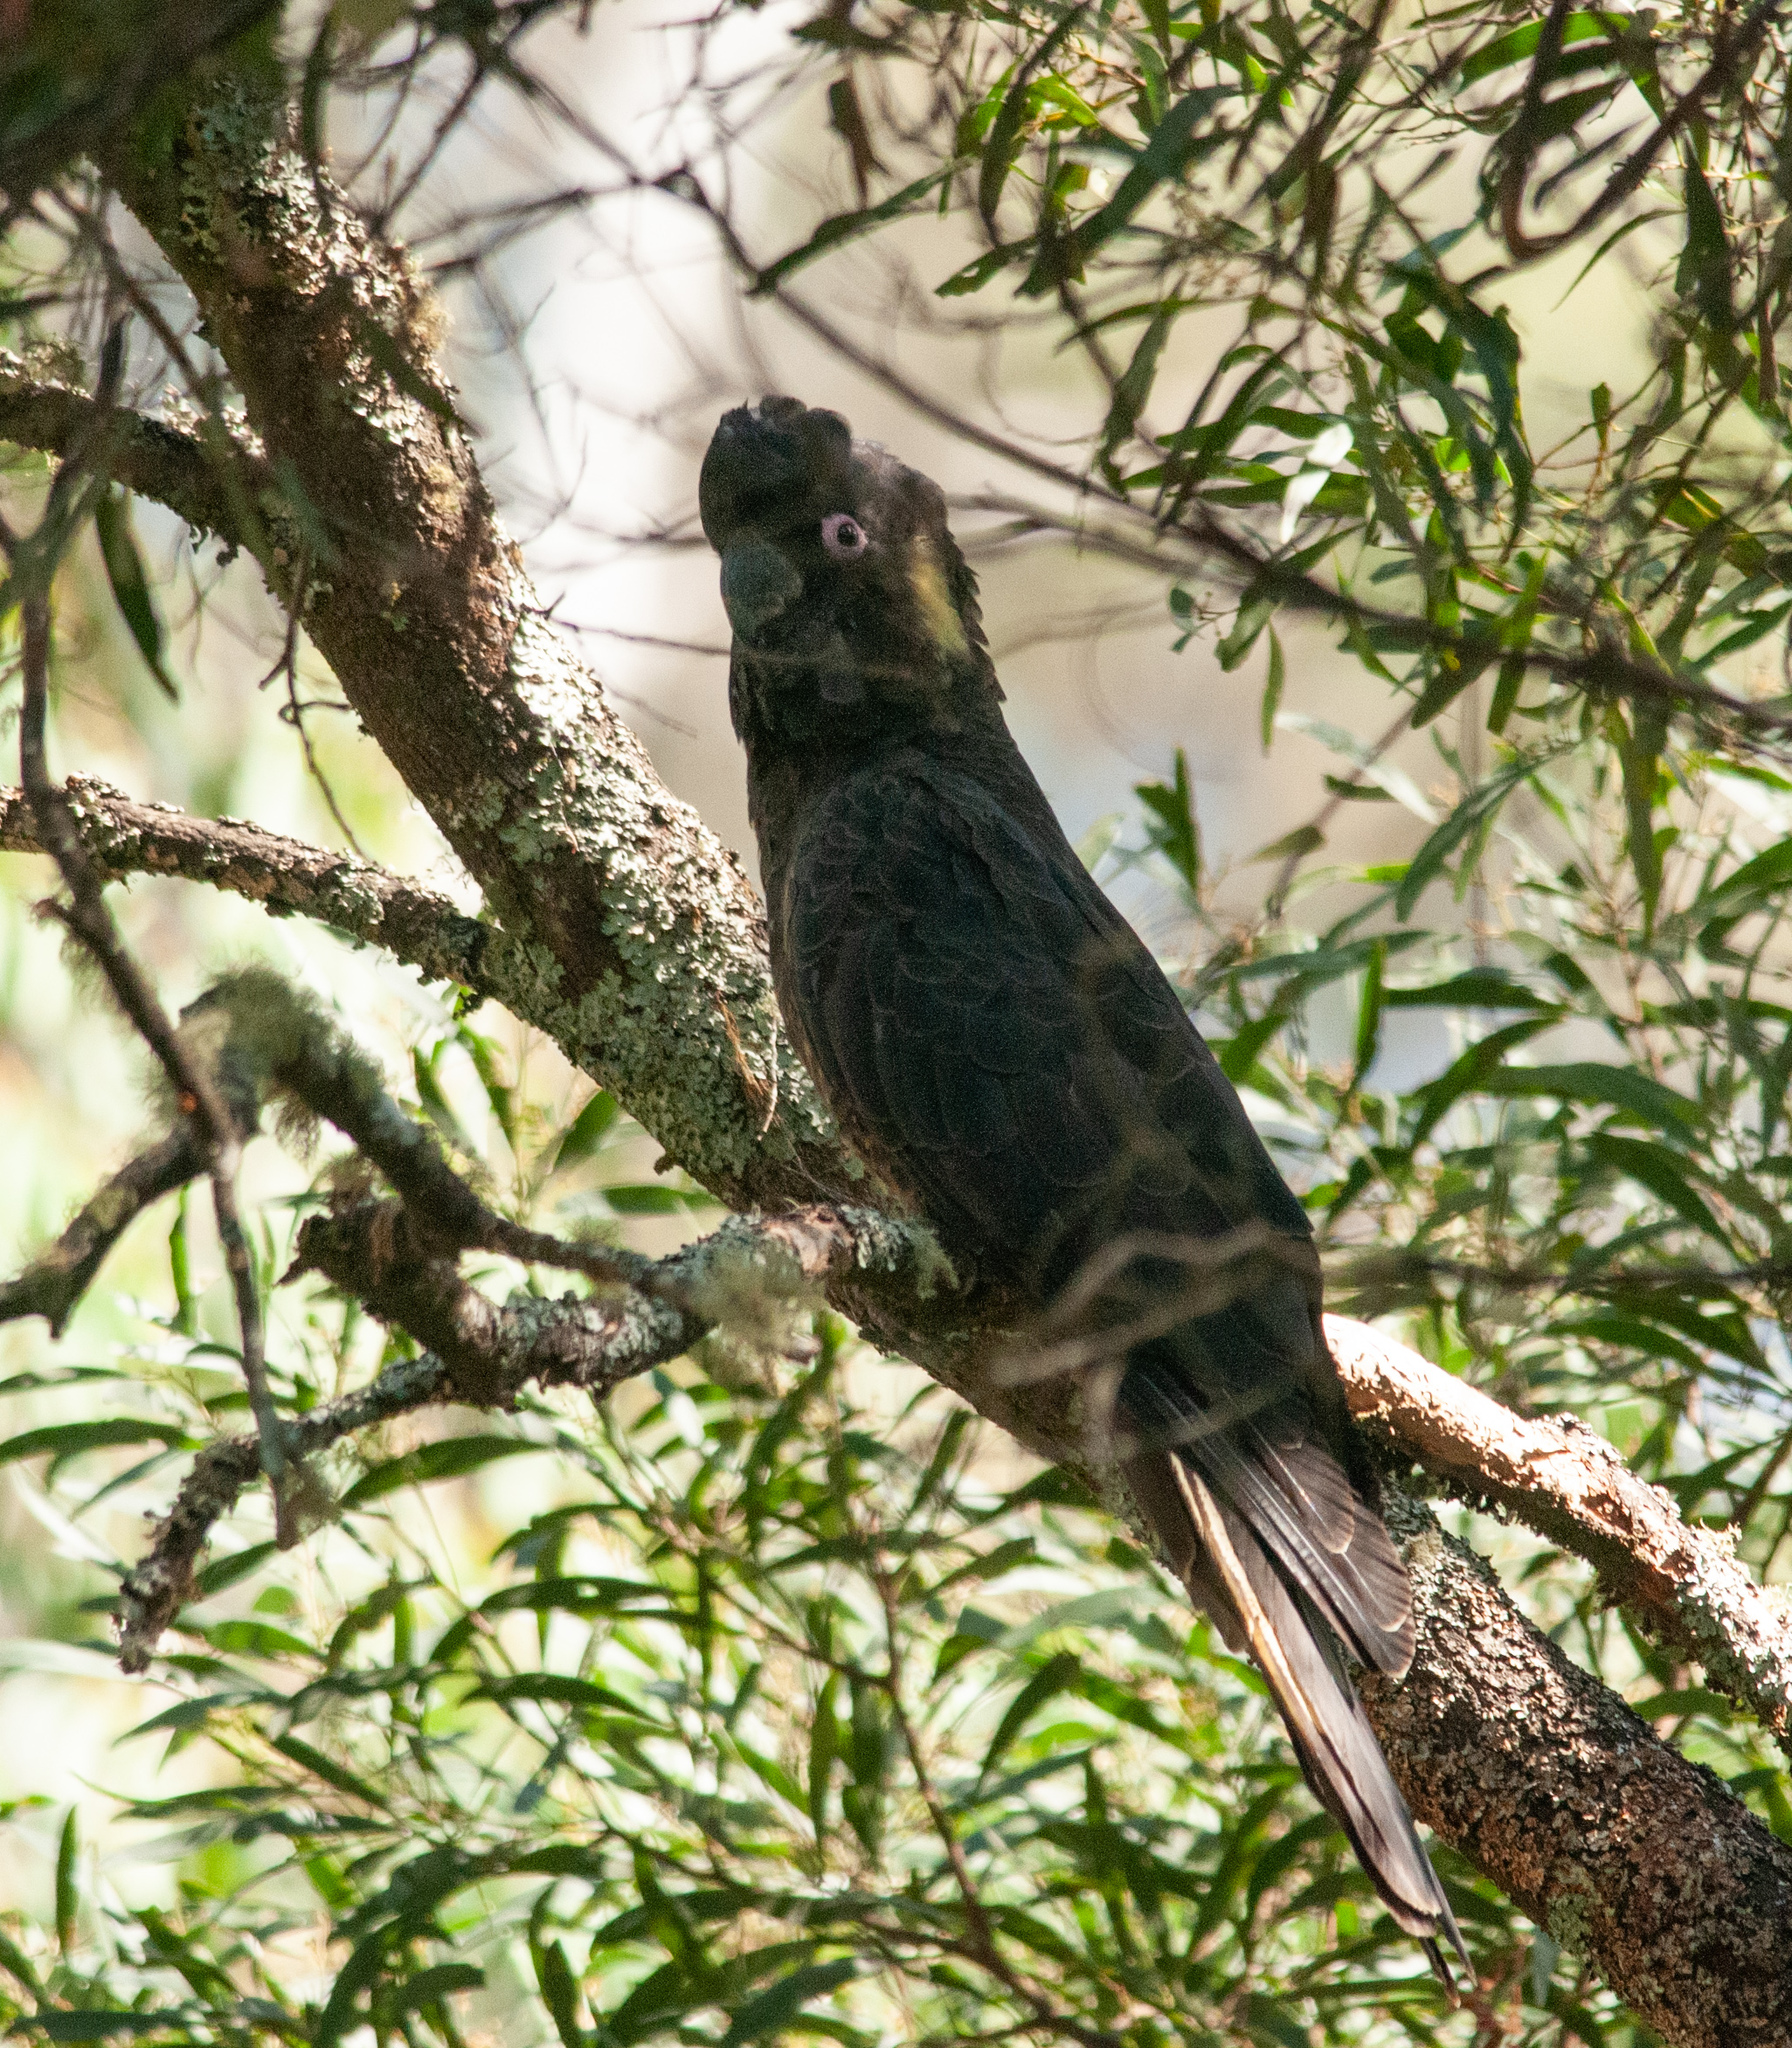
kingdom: Animalia
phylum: Chordata
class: Aves
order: Psittaciformes
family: Cacatuidae
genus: Zanda
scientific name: Zanda funerea
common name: Yellow-tailed black-cockatoo
